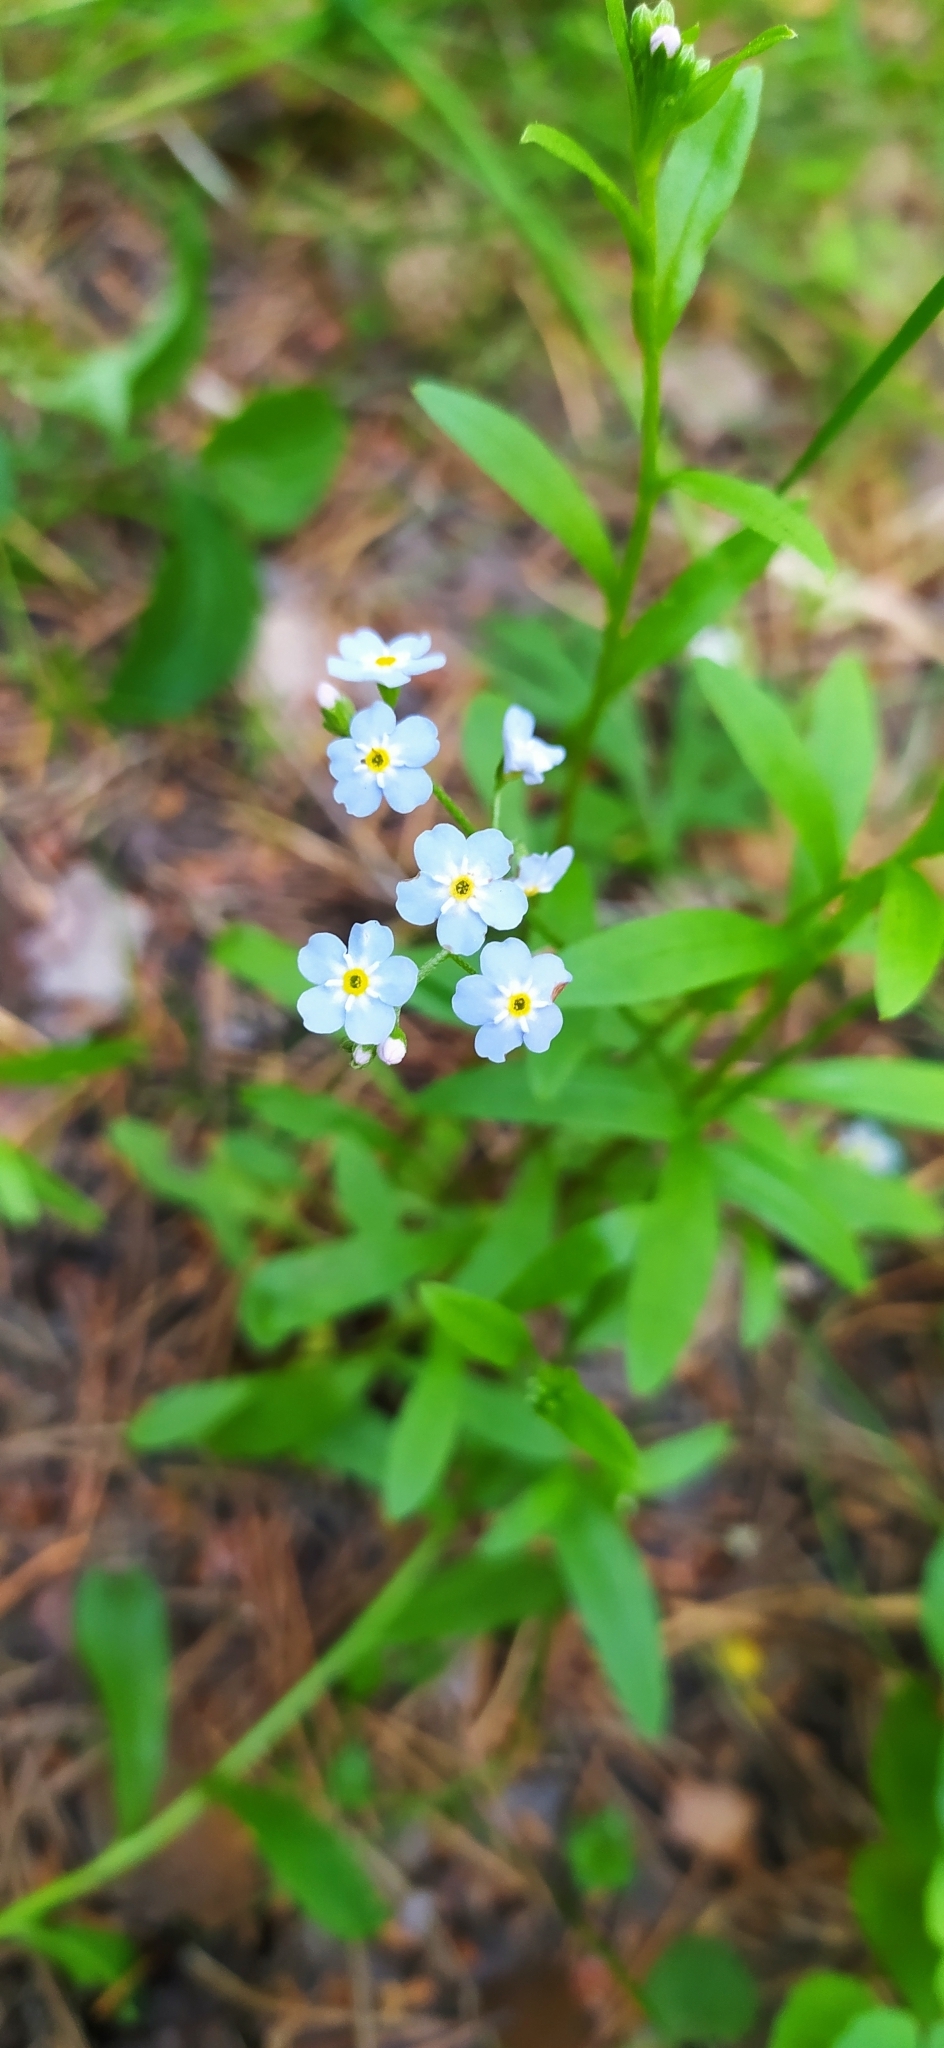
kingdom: Plantae
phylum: Tracheophyta
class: Magnoliopsida
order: Boraginales
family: Boraginaceae
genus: Myosotis
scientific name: Myosotis scorpioides
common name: Water forget-me-not
